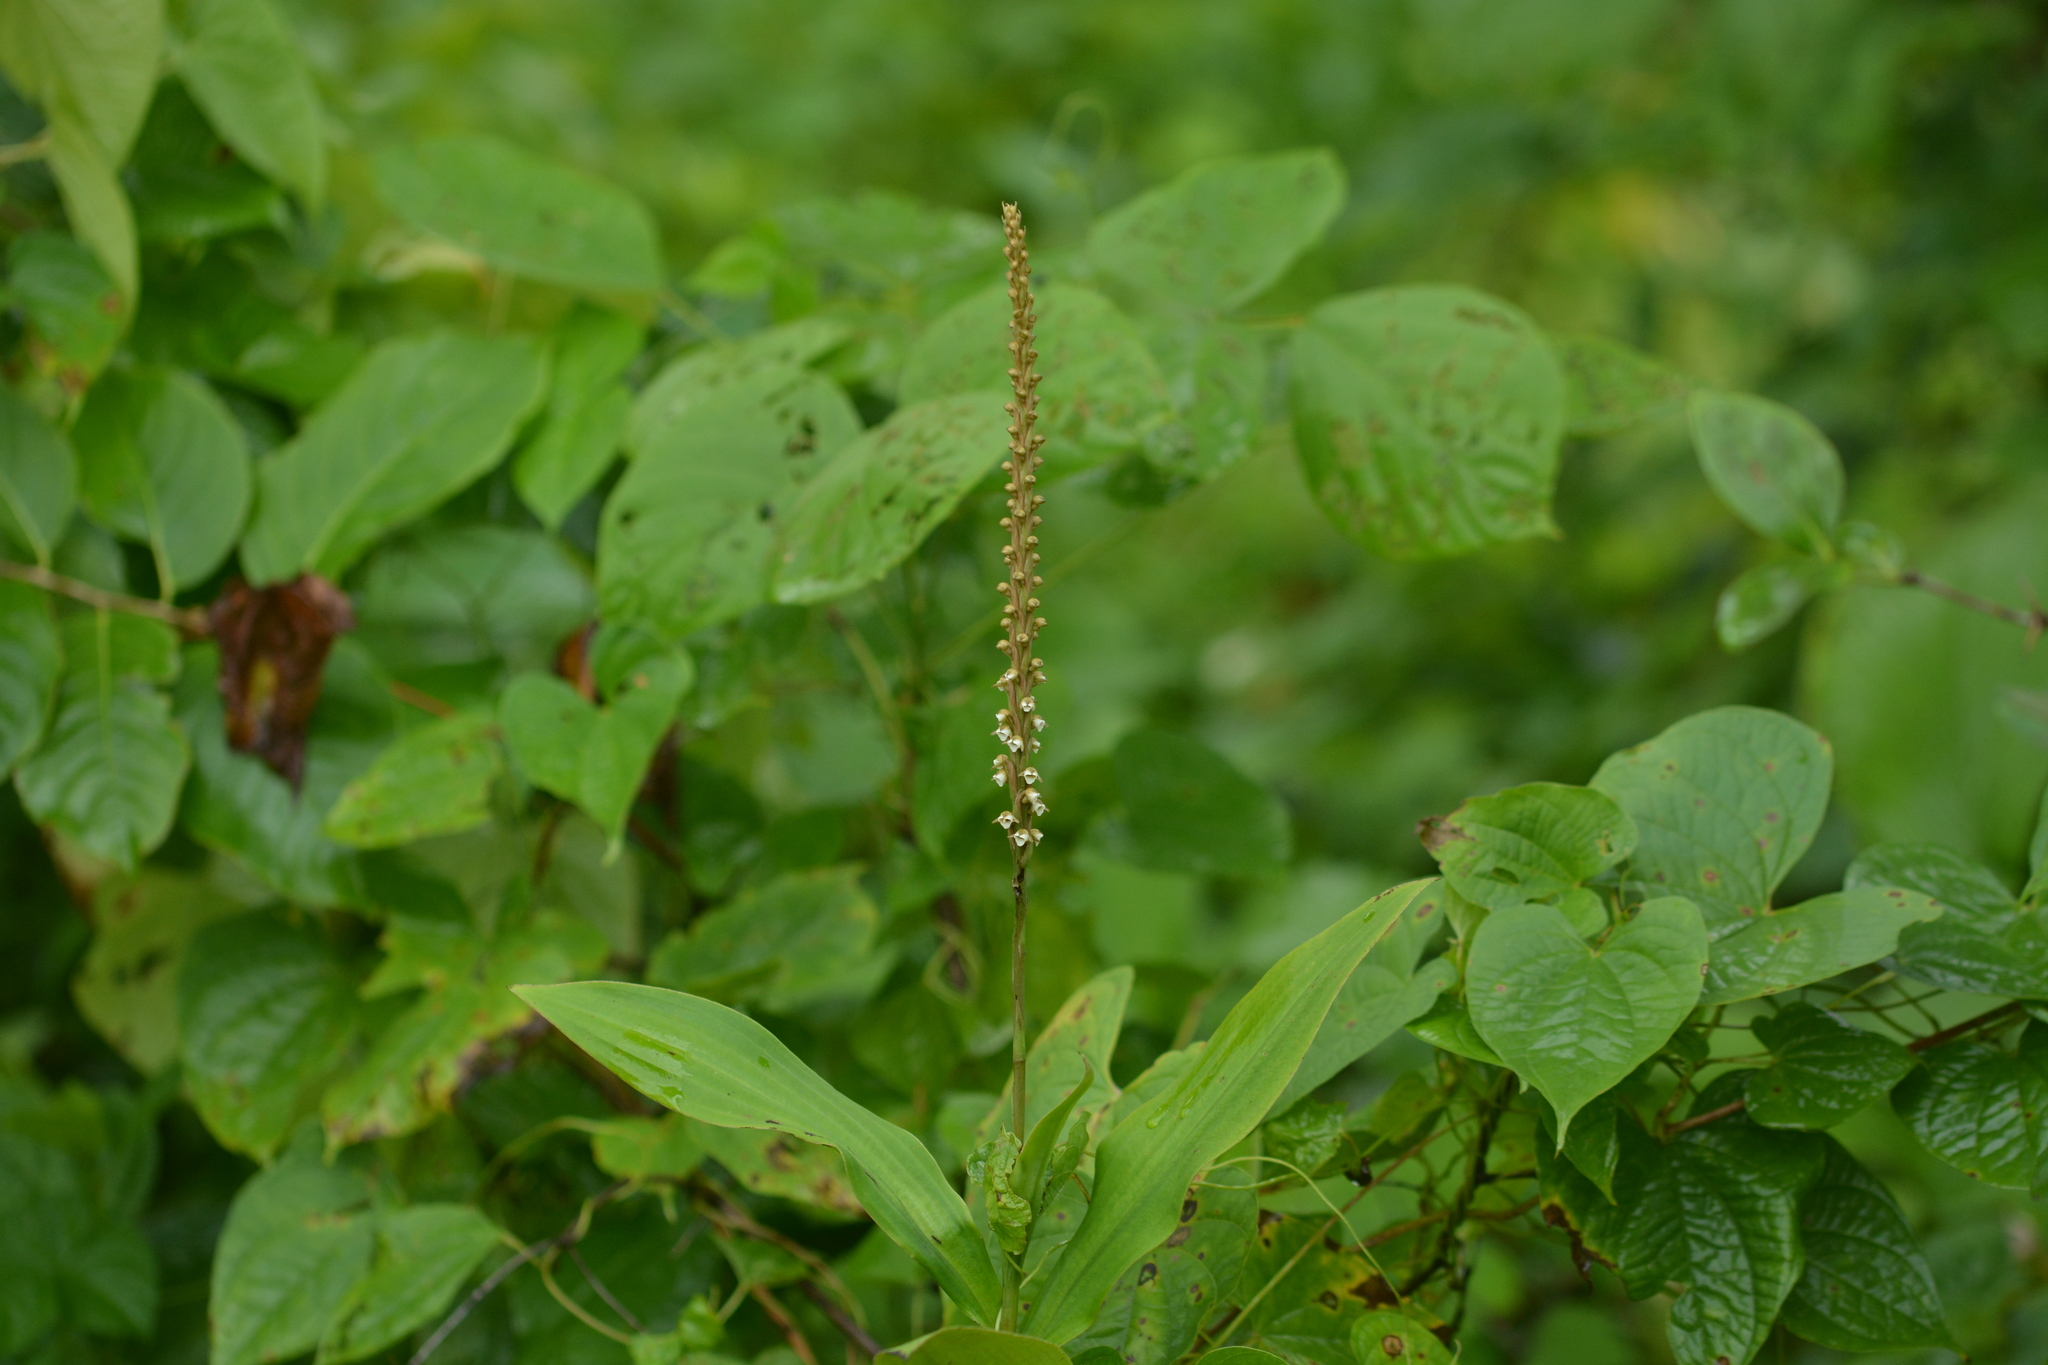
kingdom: Plantae
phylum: Tracheophyta
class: Liliopsida
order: Asparagales
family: Orchidaceae
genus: Peristylus
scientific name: Peristylus plantagineus
